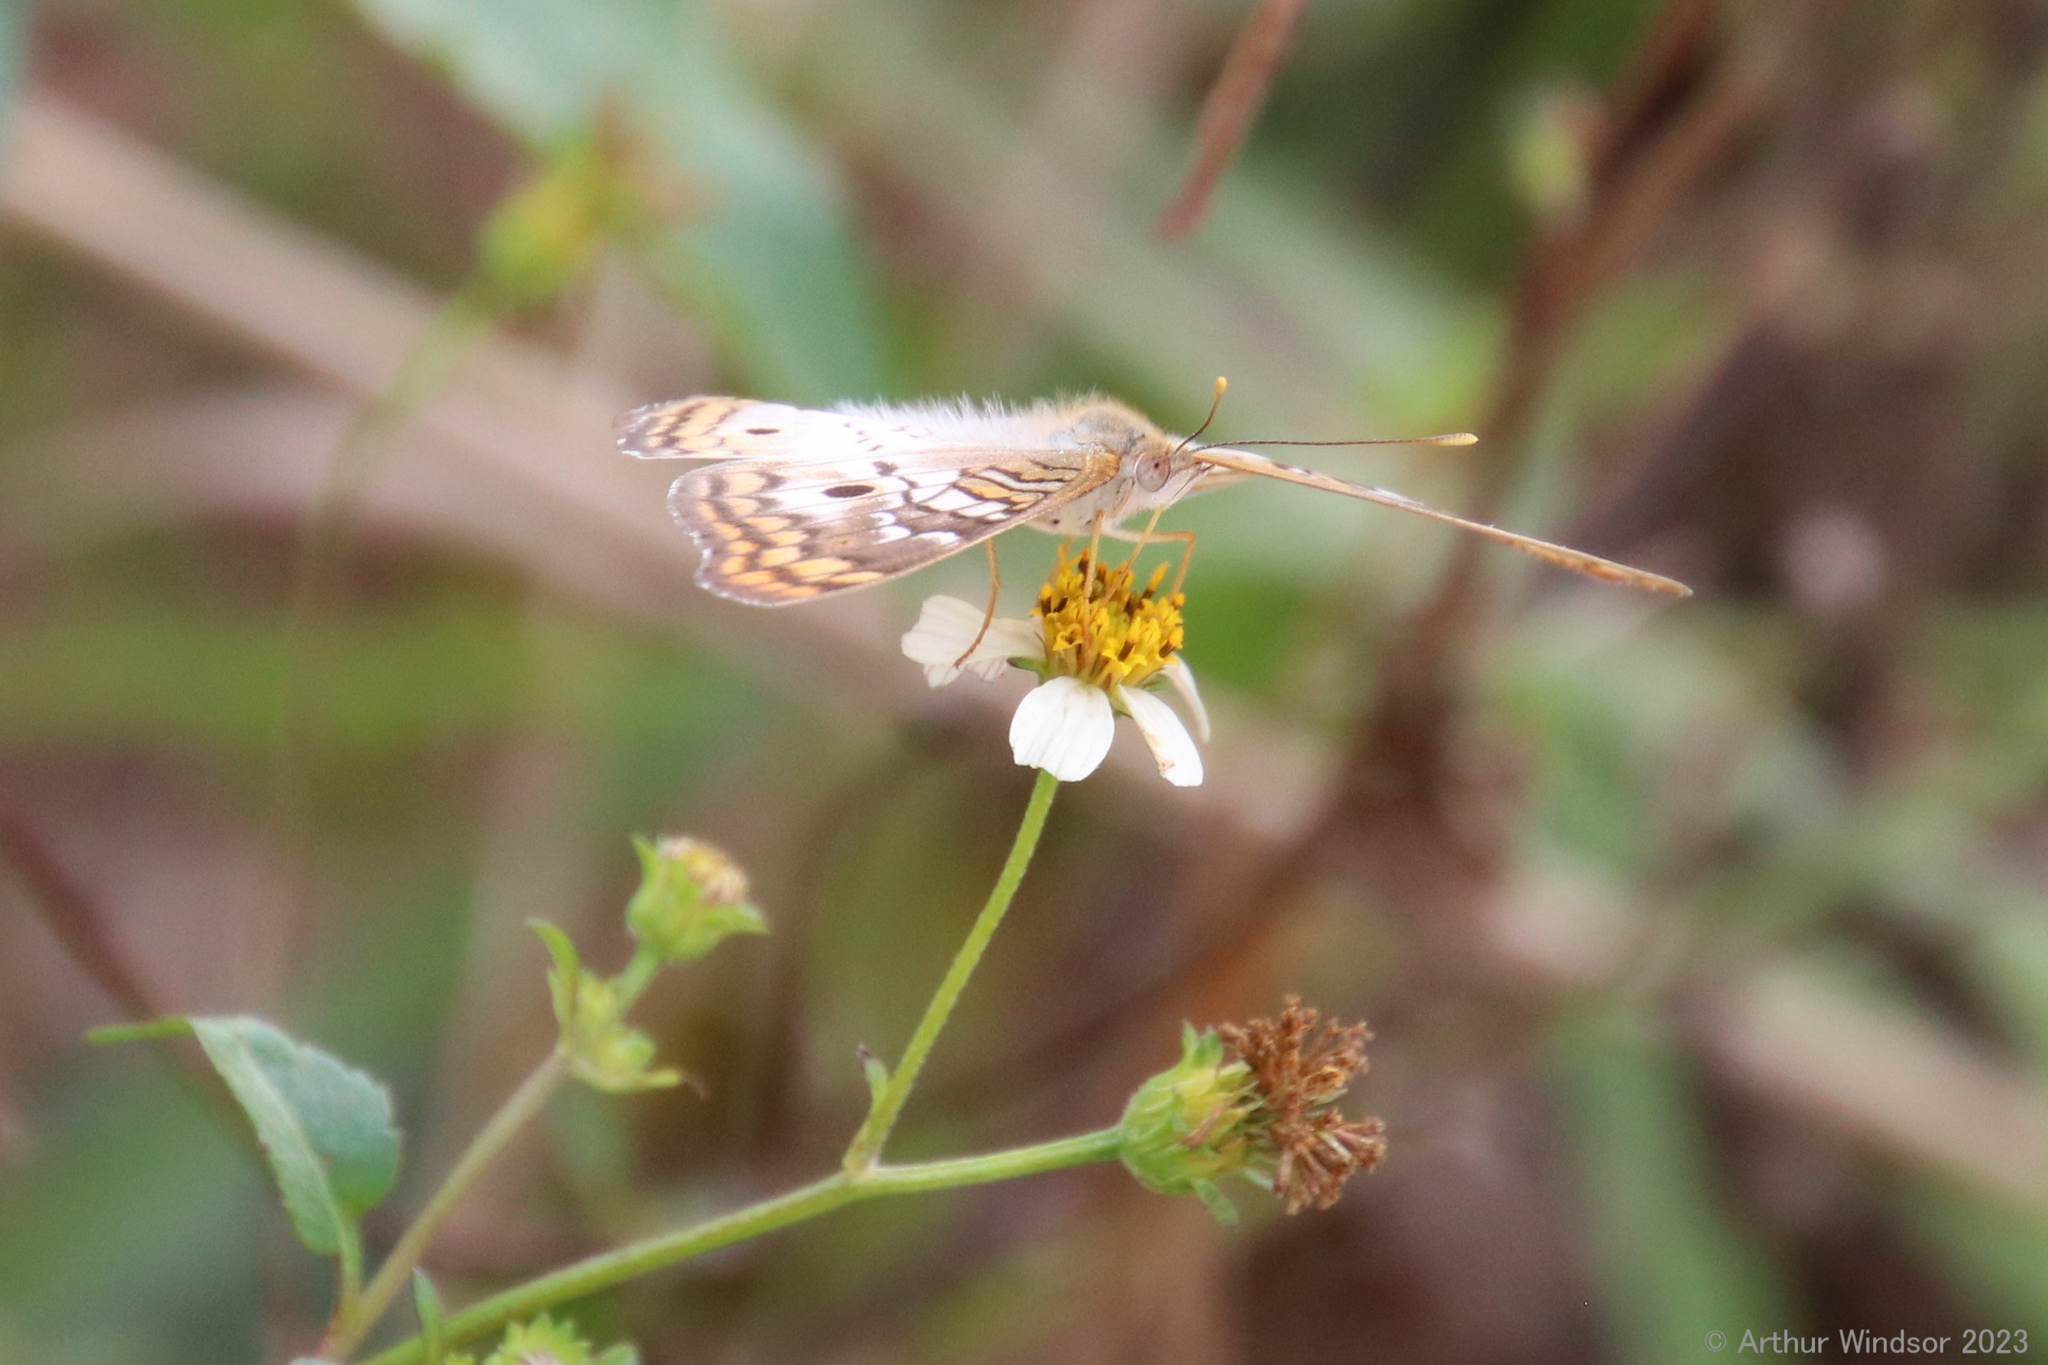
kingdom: Animalia
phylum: Arthropoda
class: Insecta
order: Lepidoptera
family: Nymphalidae
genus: Anartia
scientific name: Anartia jatrophae
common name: White peacock
